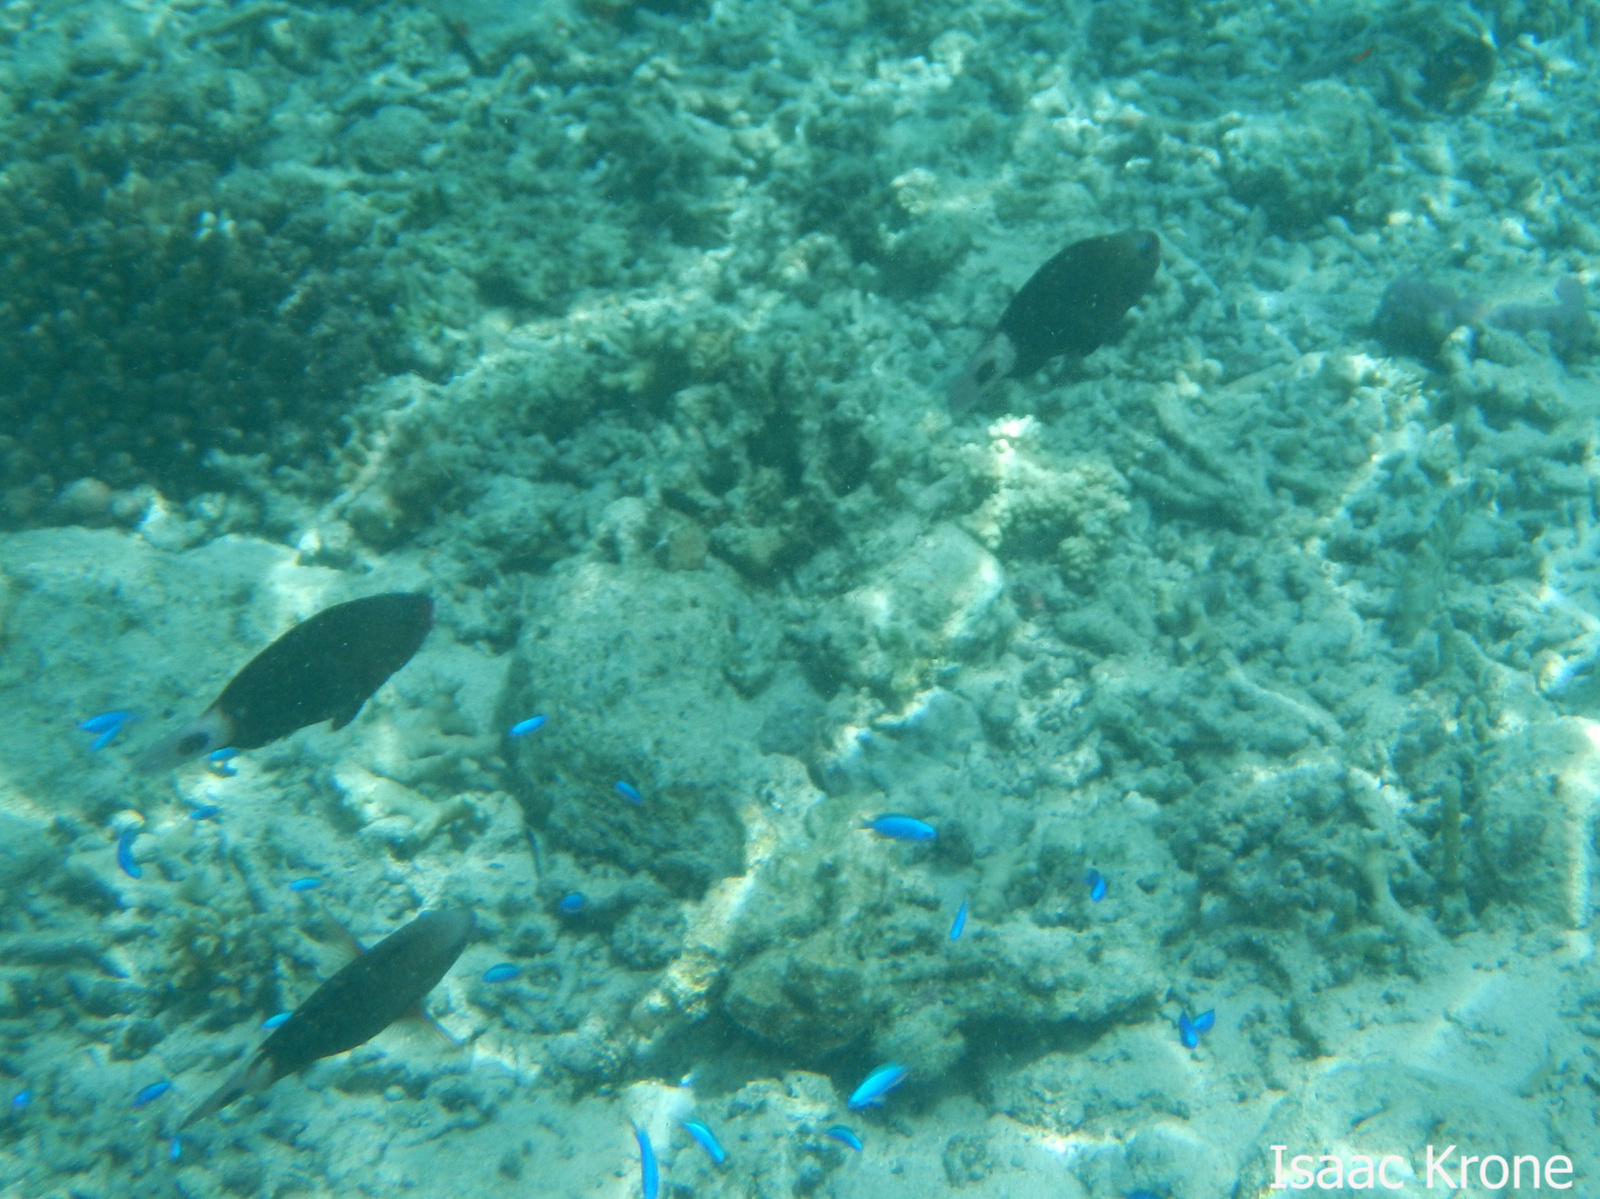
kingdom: Animalia
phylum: Chordata
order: Perciformes
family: Scaridae
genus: Chlorurus
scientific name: Chlorurus spilurus
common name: Bullethead parrotfish
